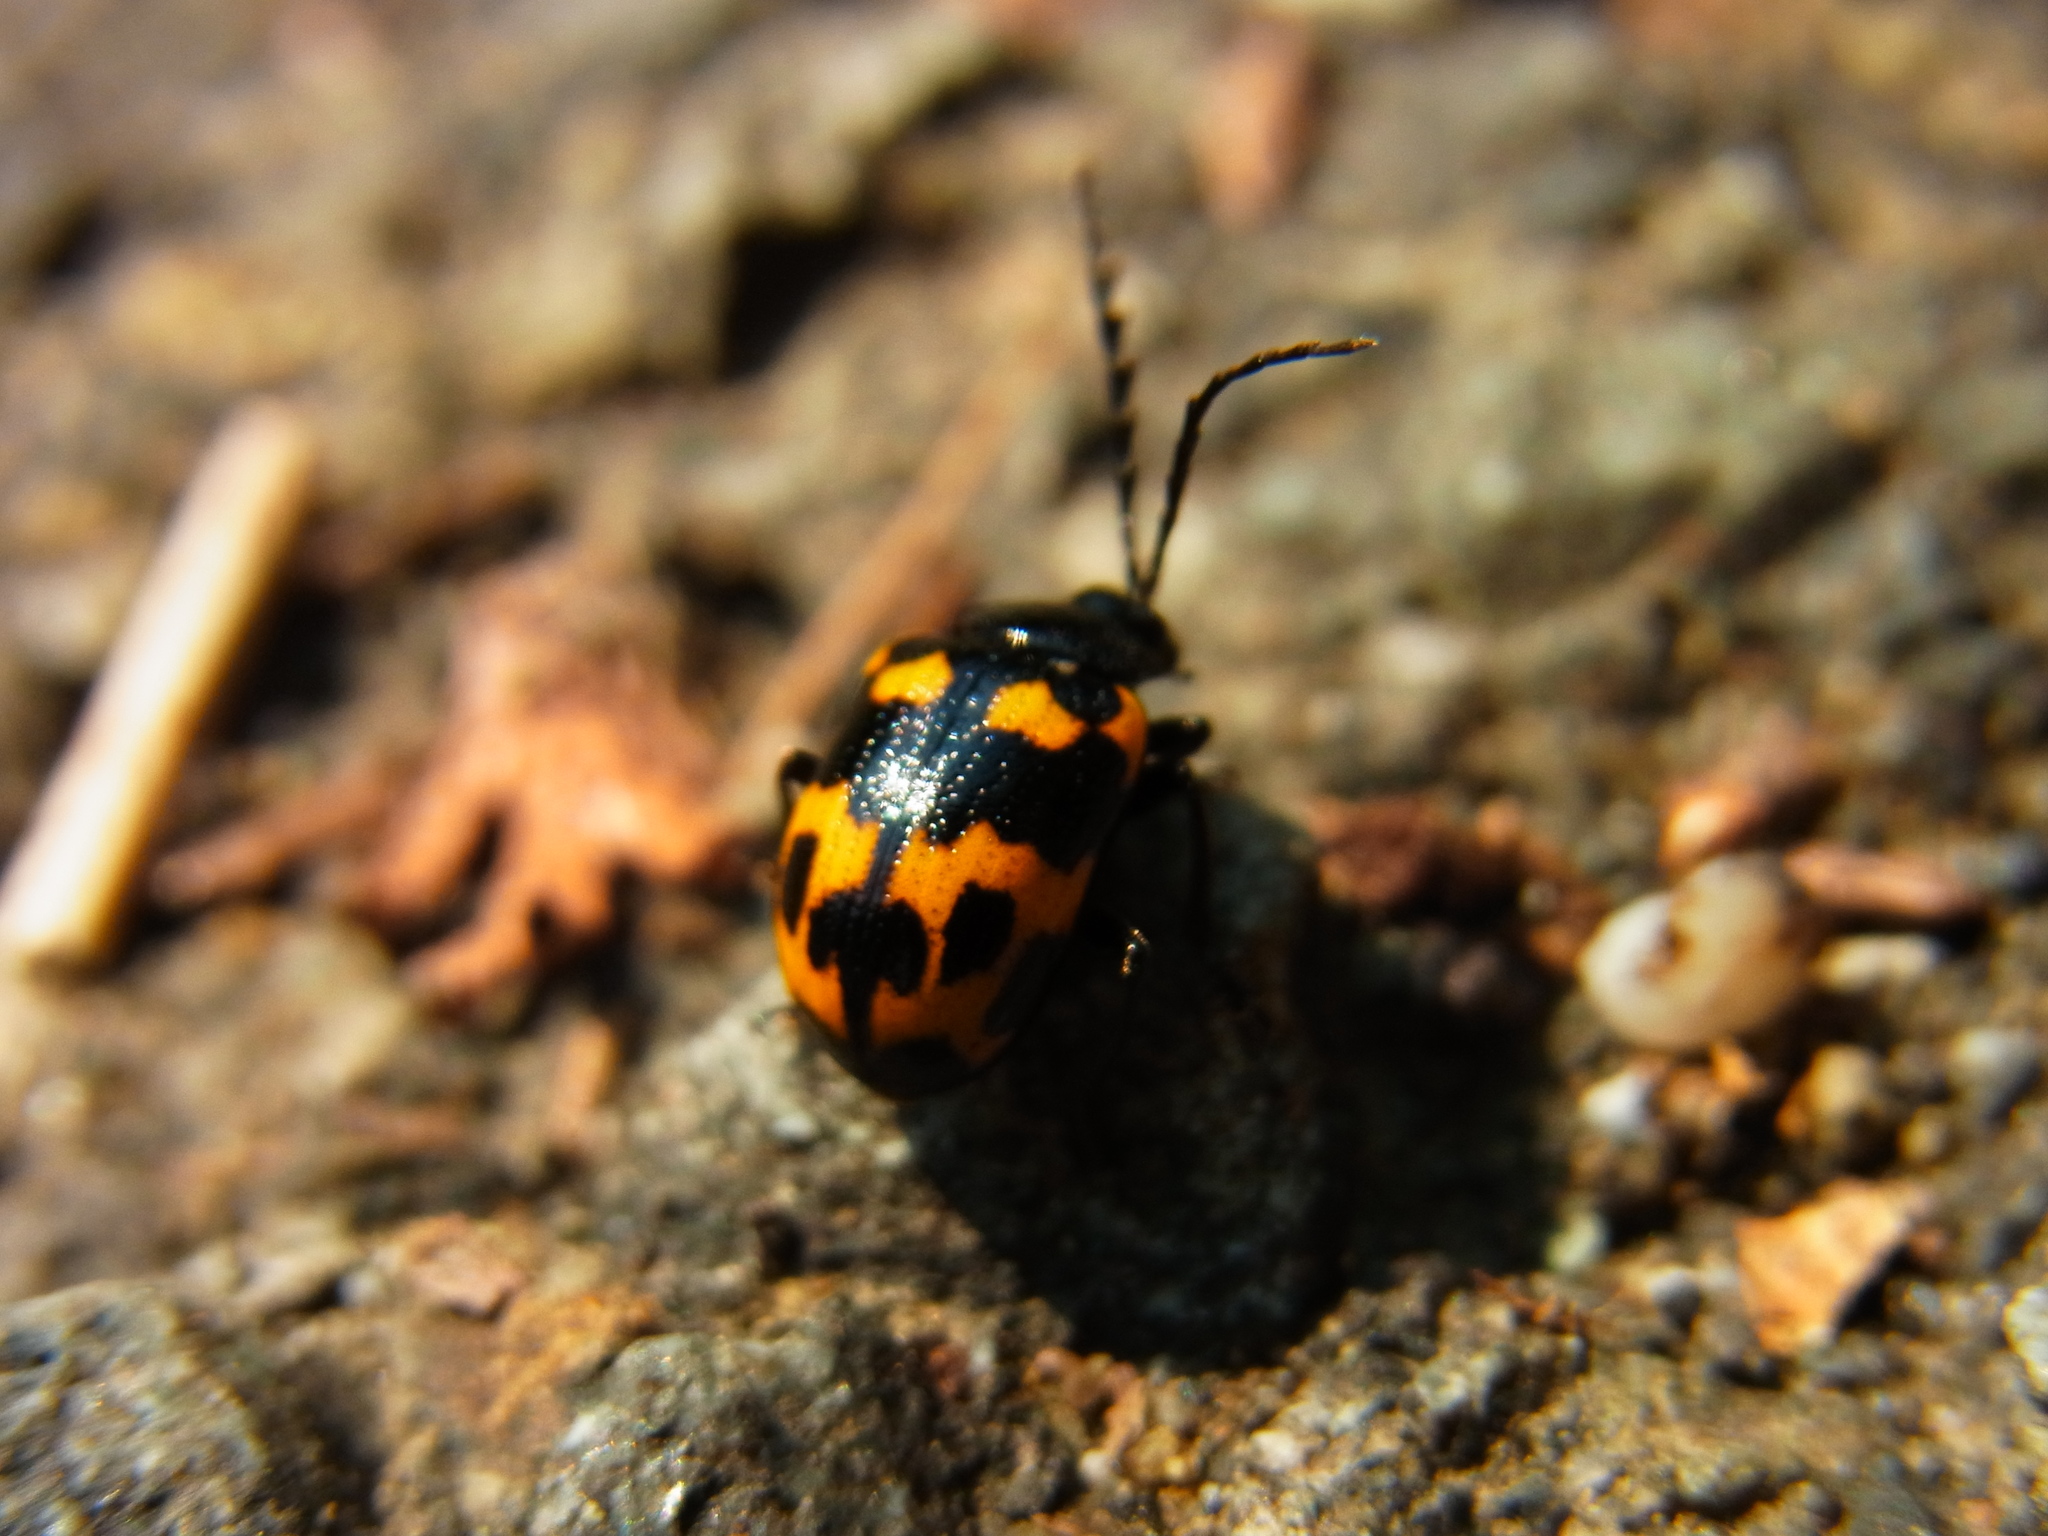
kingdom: Animalia
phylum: Arthropoda
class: Insecta
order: Coleoptera
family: Chrysomelidae
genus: Gallerucida
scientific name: Gallerucida bifasciata
